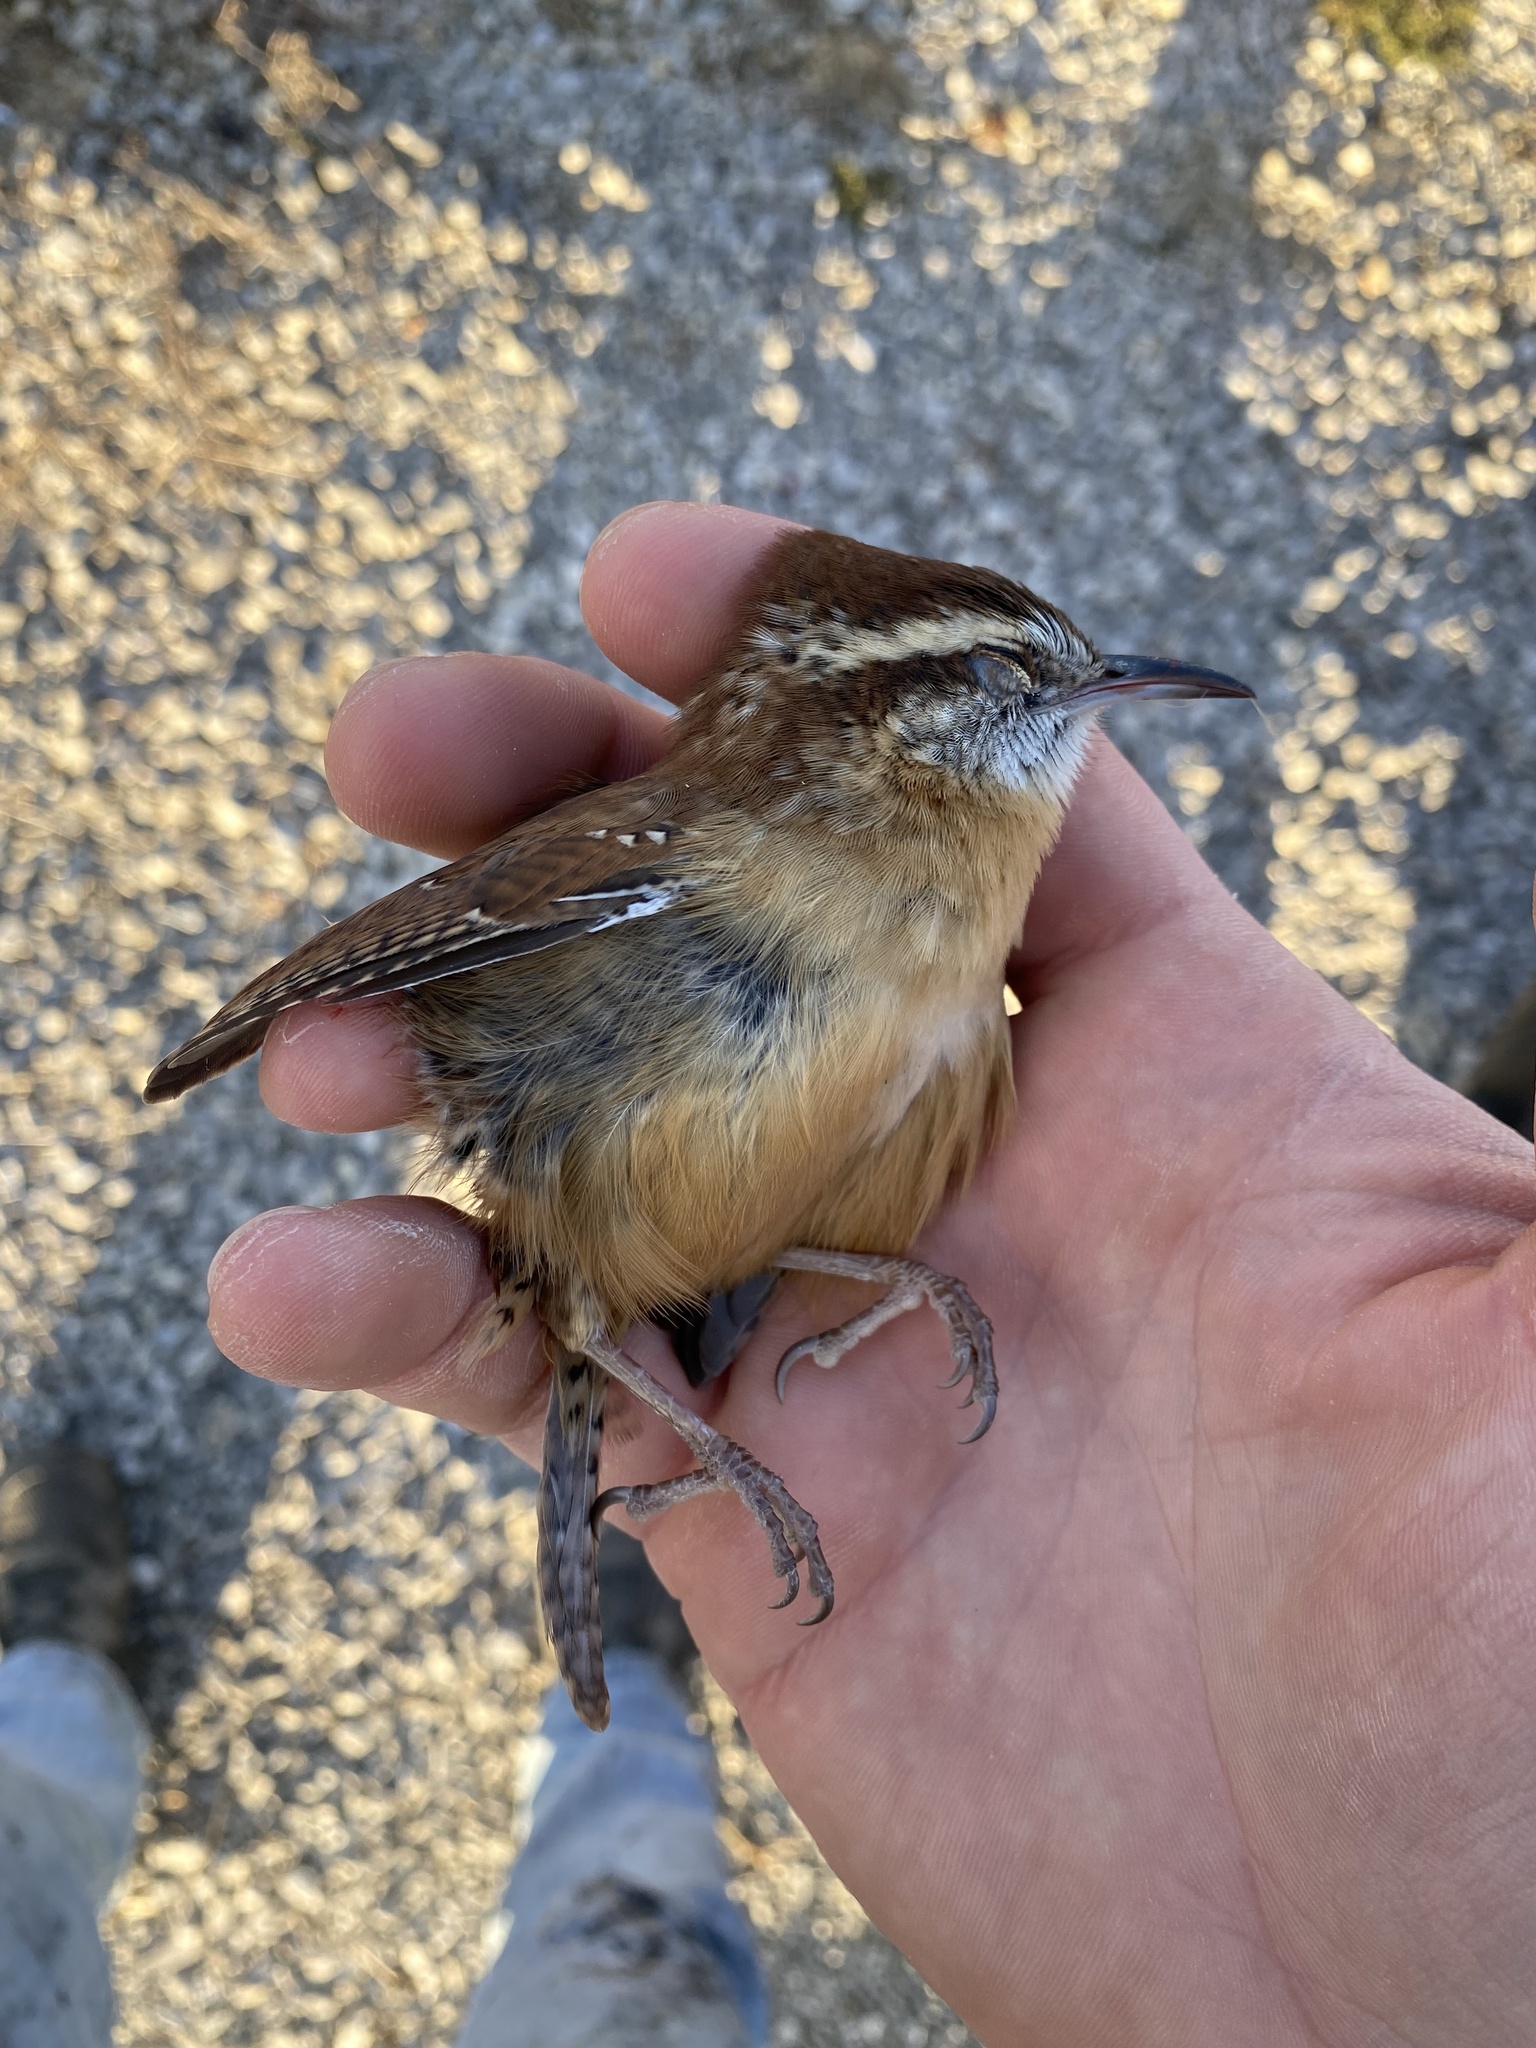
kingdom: Animalia
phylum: Chordata
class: Aves
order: Passeriformes
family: Troglodytidae
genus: Thryothorus
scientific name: Thryothorus ludovicianus
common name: Carolina wren
